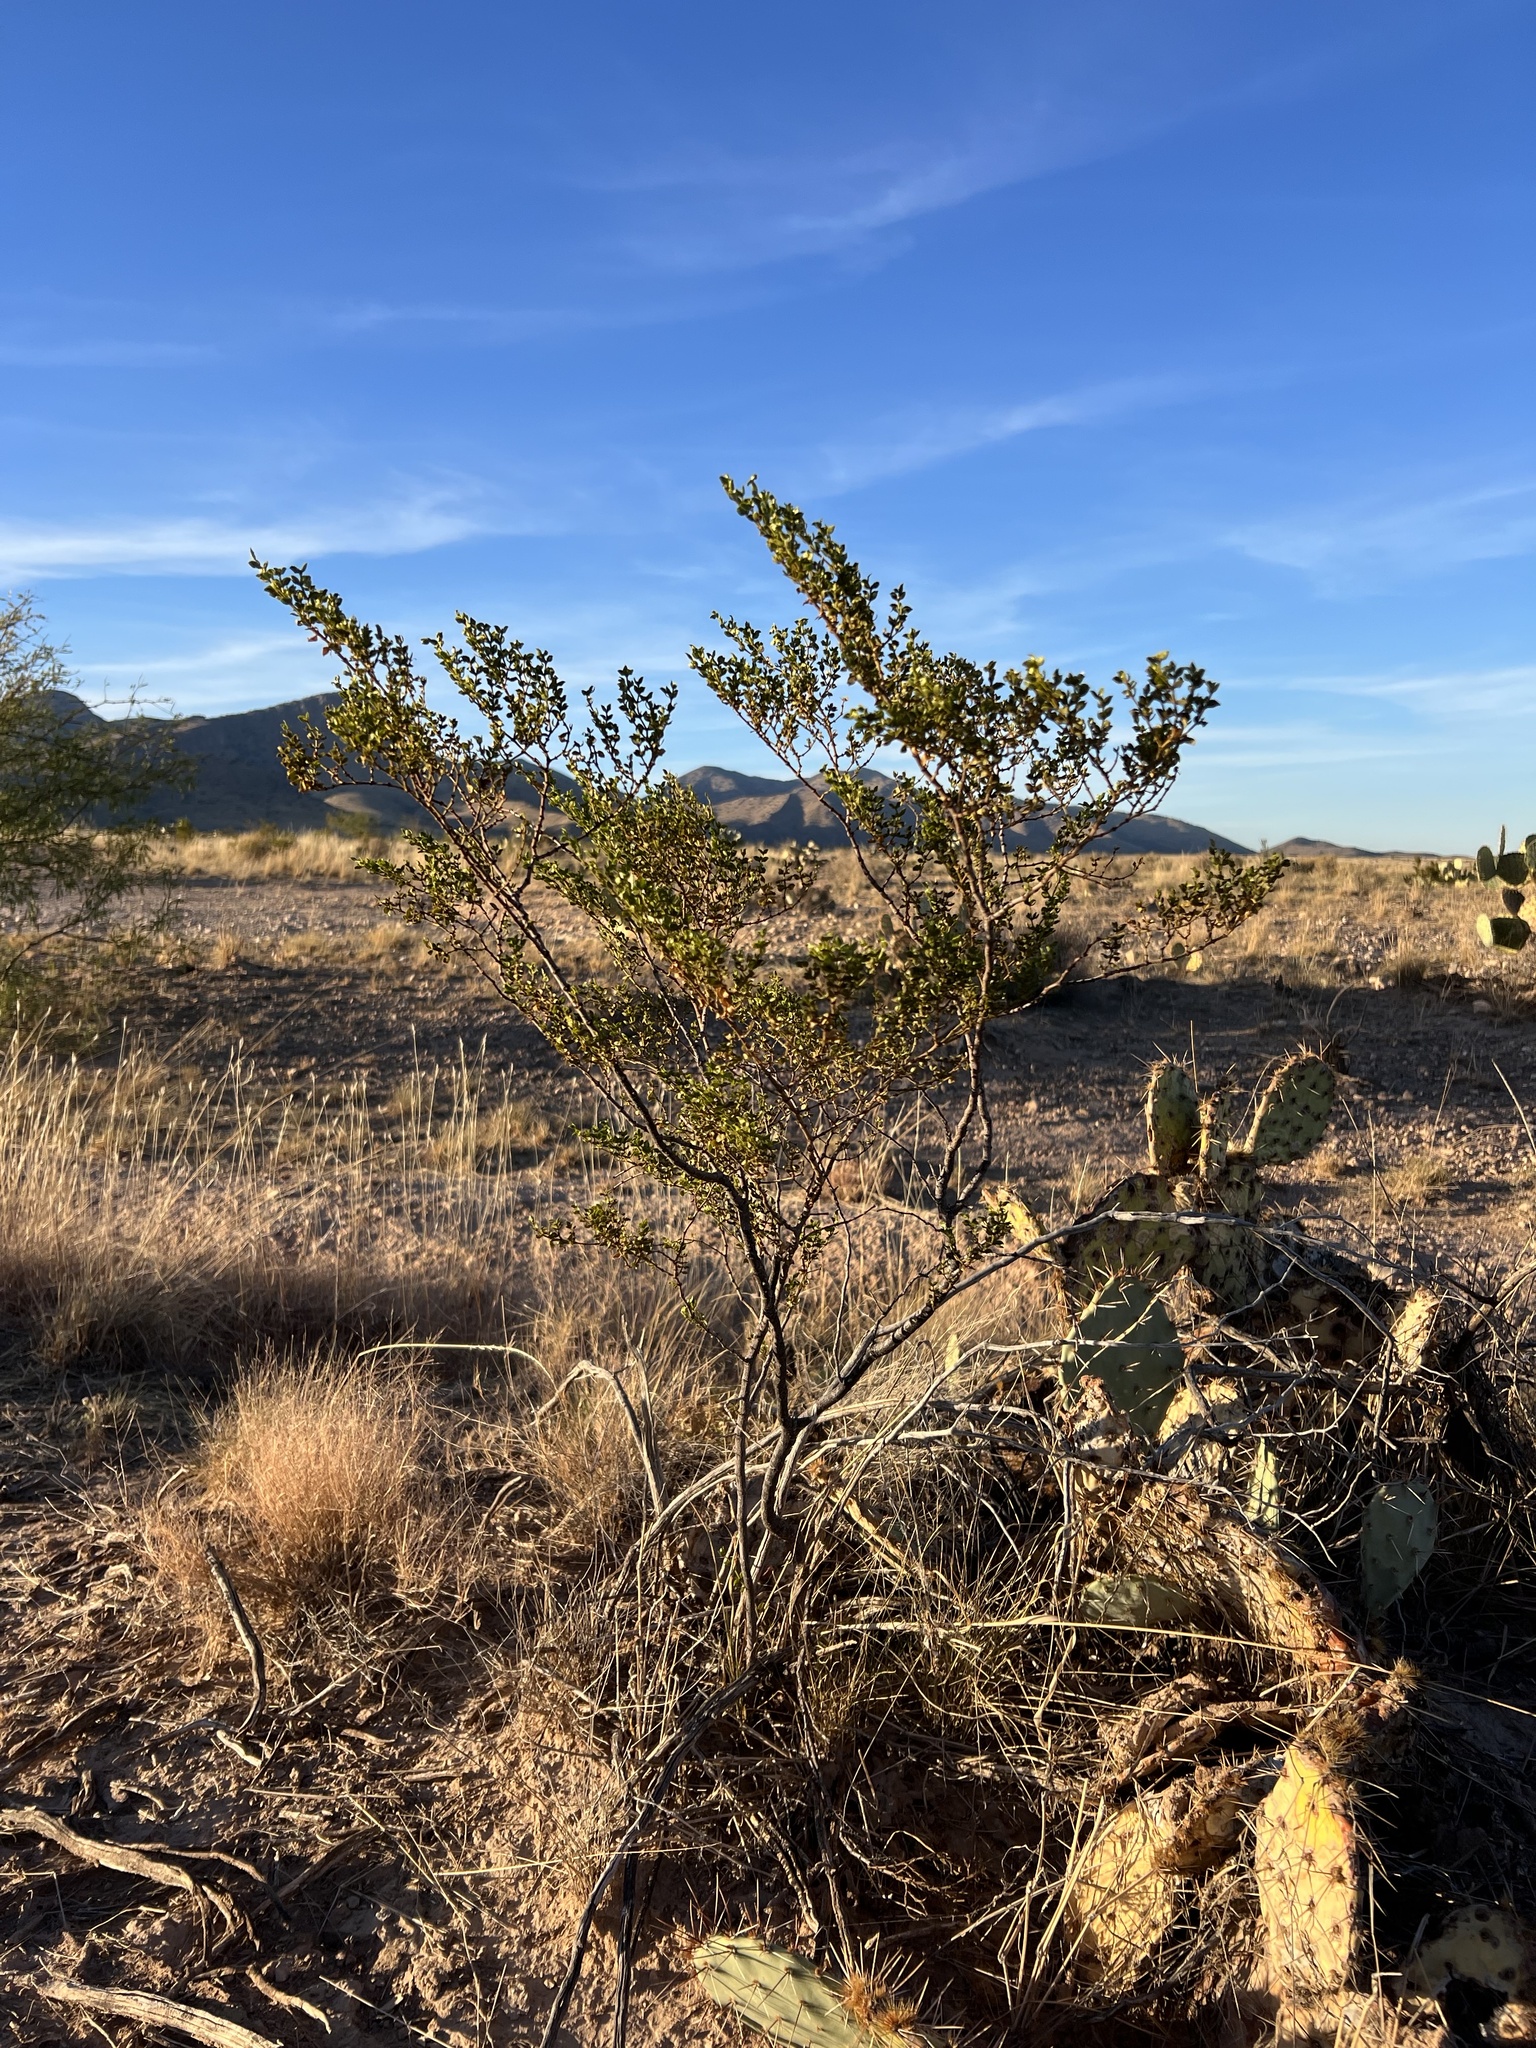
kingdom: Plantae
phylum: Tracheophyta
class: Magnoliopsida
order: Zygophyllales
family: Zygophyllaceae
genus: Larrea
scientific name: Larrea tridentata
